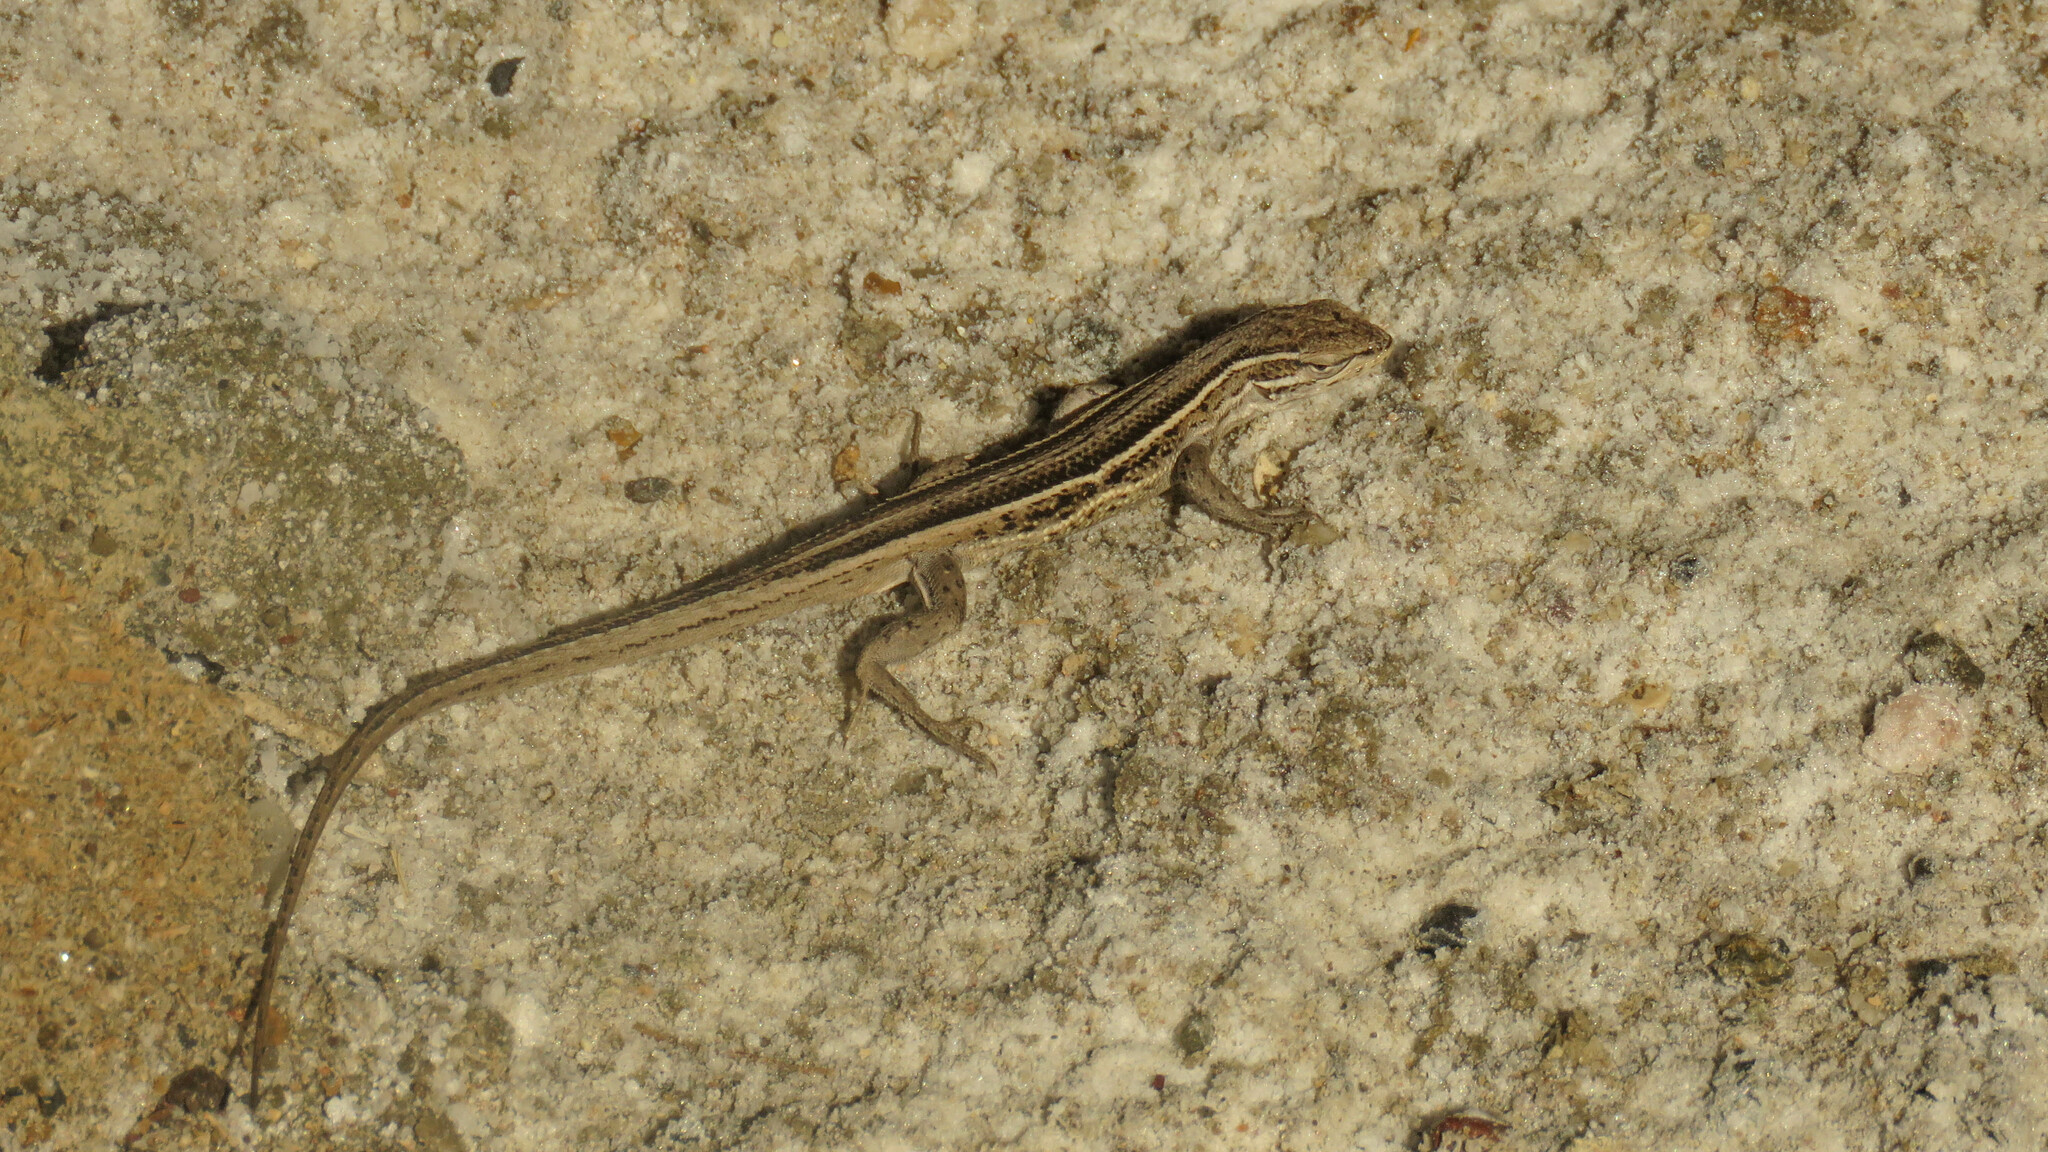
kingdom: Animalia
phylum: Chordata
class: Squamata
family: Liolaemidae
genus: Liolaemus
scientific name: Liolaemus gracilis
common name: Graceful tree iguana
